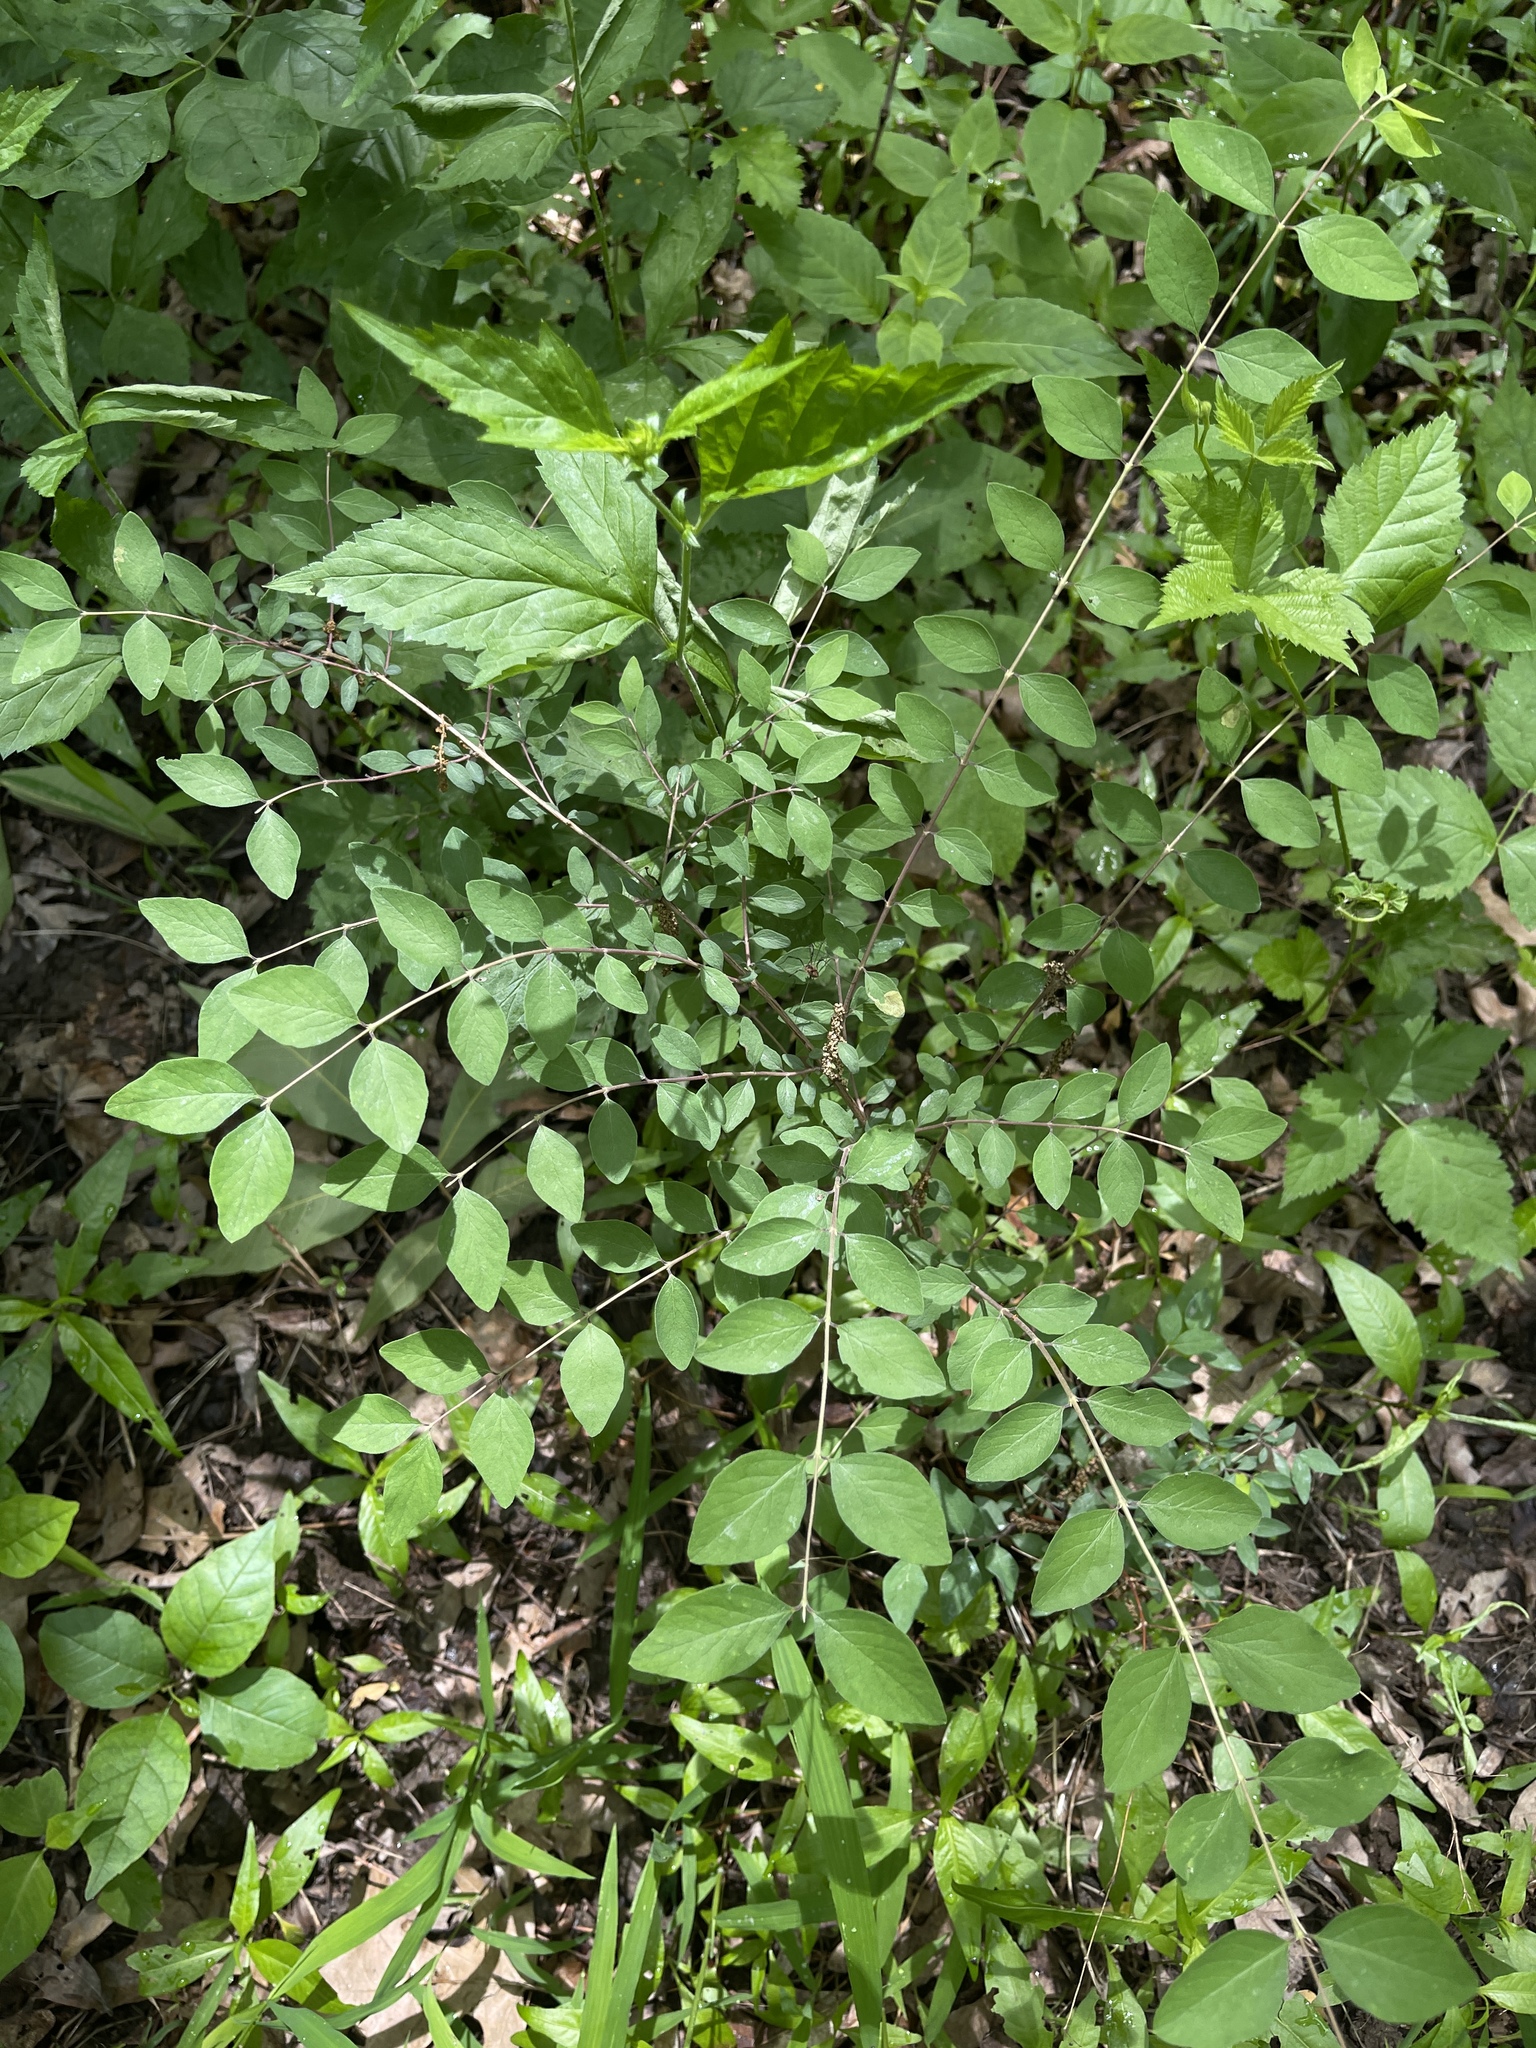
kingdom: Plantae
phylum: Tracheophyta
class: Magnoliopsida
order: Dipsacales
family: Caprifoliaceae
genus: Symphoricarpos
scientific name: Symphoricarpos orbiculatus
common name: Coralberry
